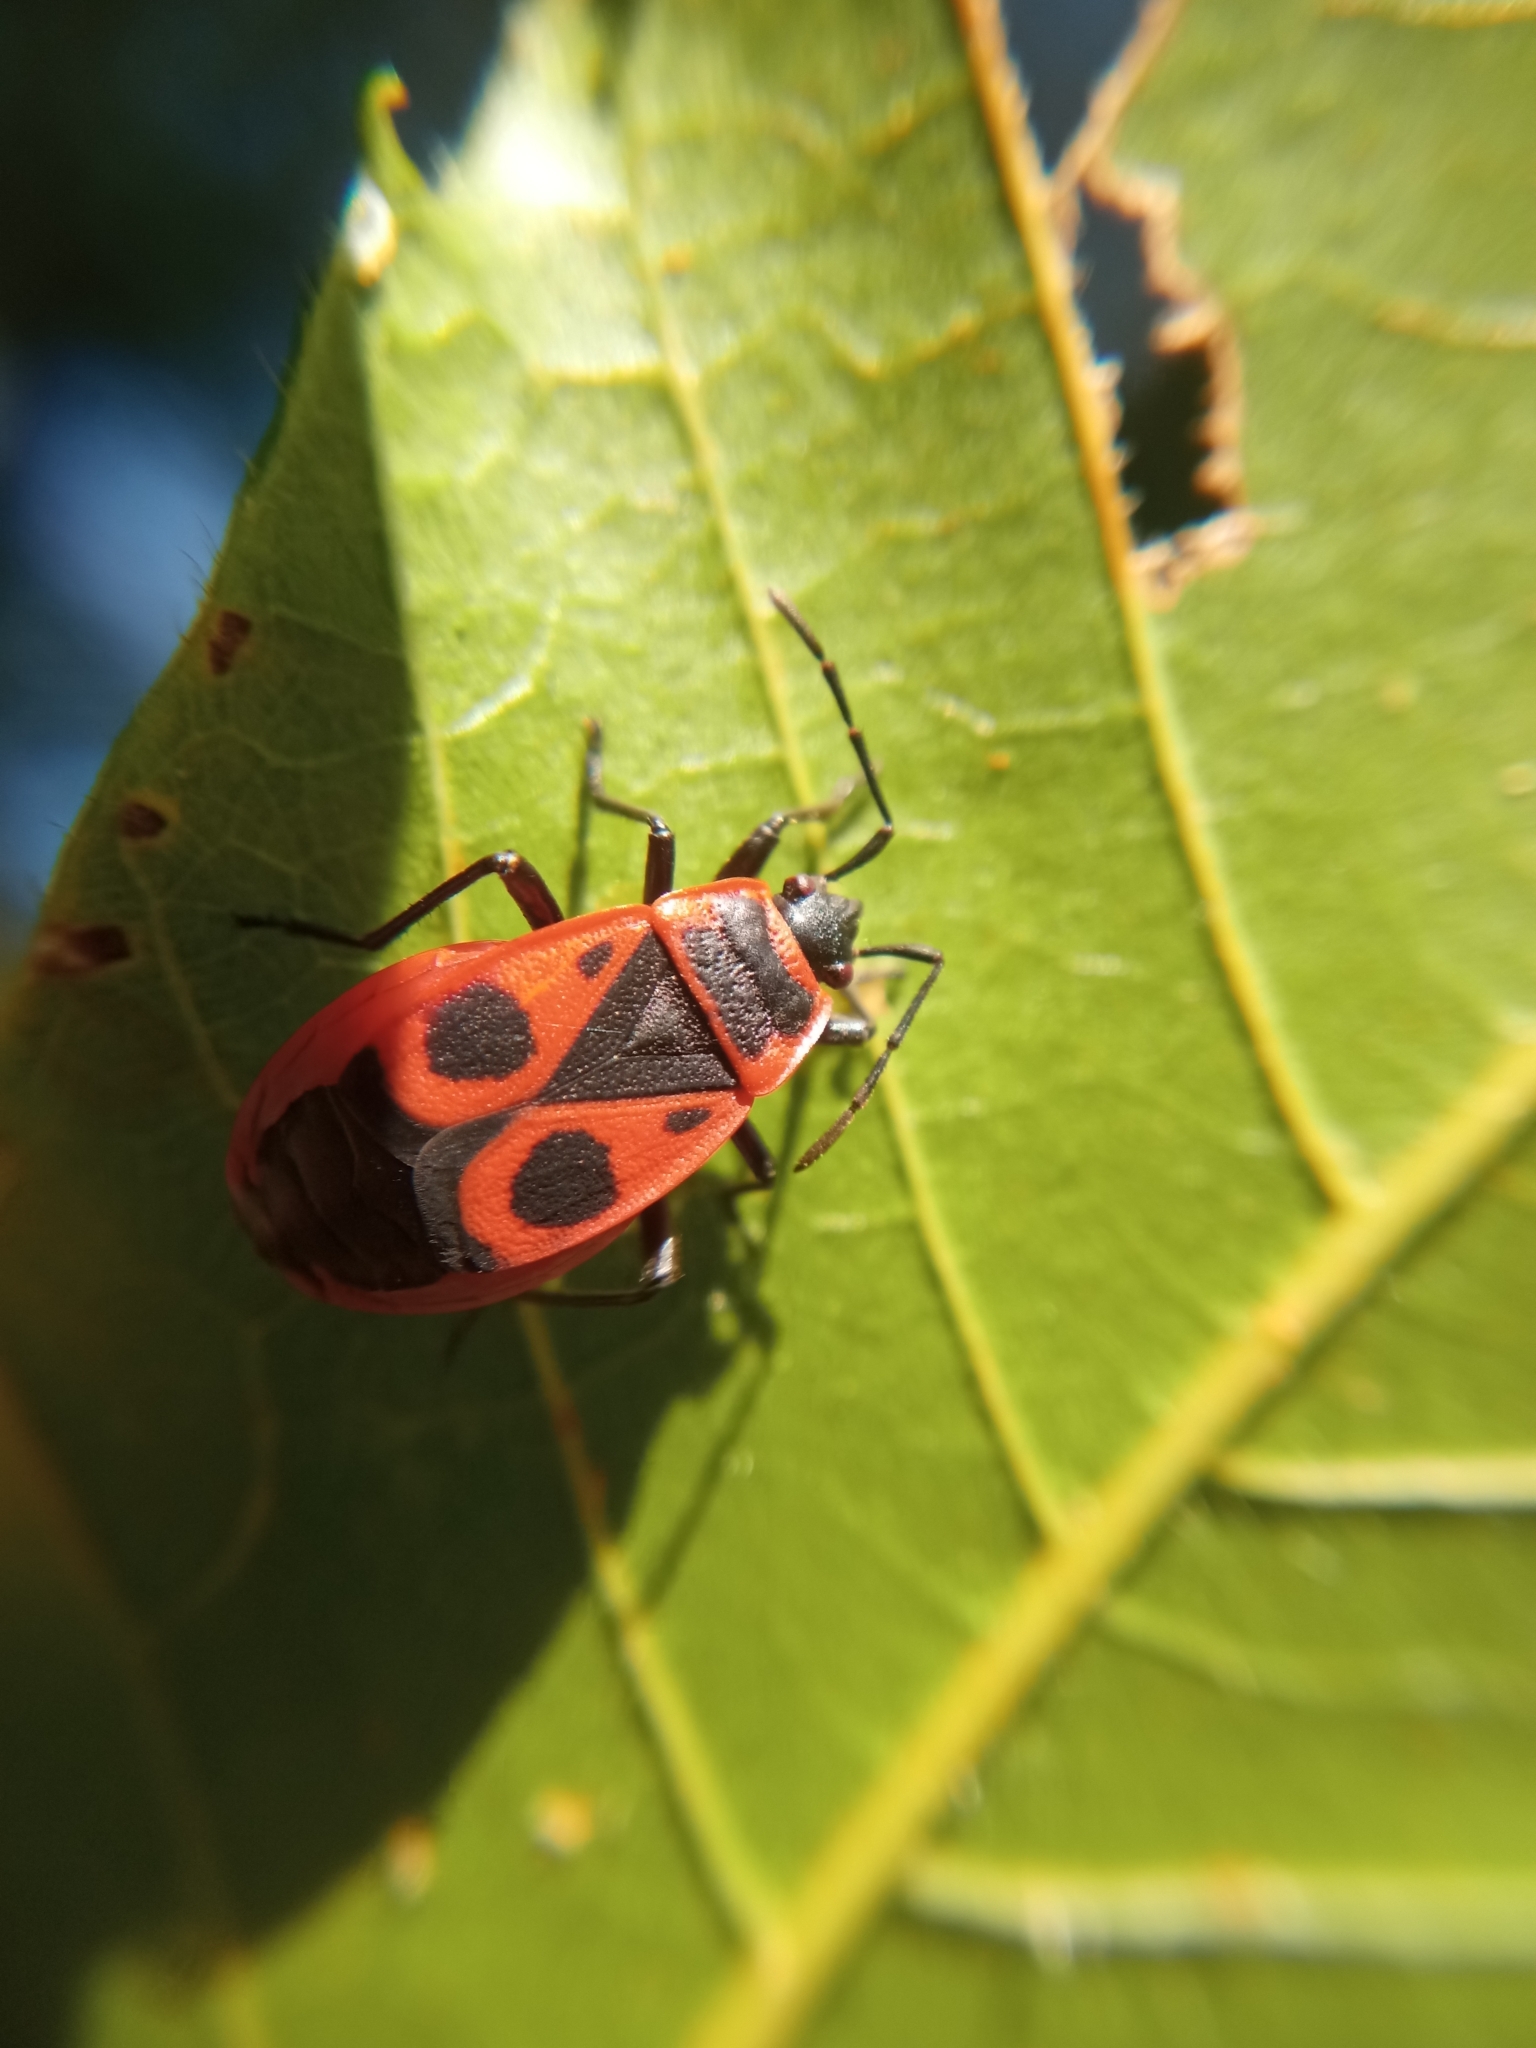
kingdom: Animalia
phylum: Arthropoda
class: Insecta
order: Hemiptera
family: Pyrrhocoridae
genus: Pyrrhocoris
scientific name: Pyrrhocoris apterus
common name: Firebug
